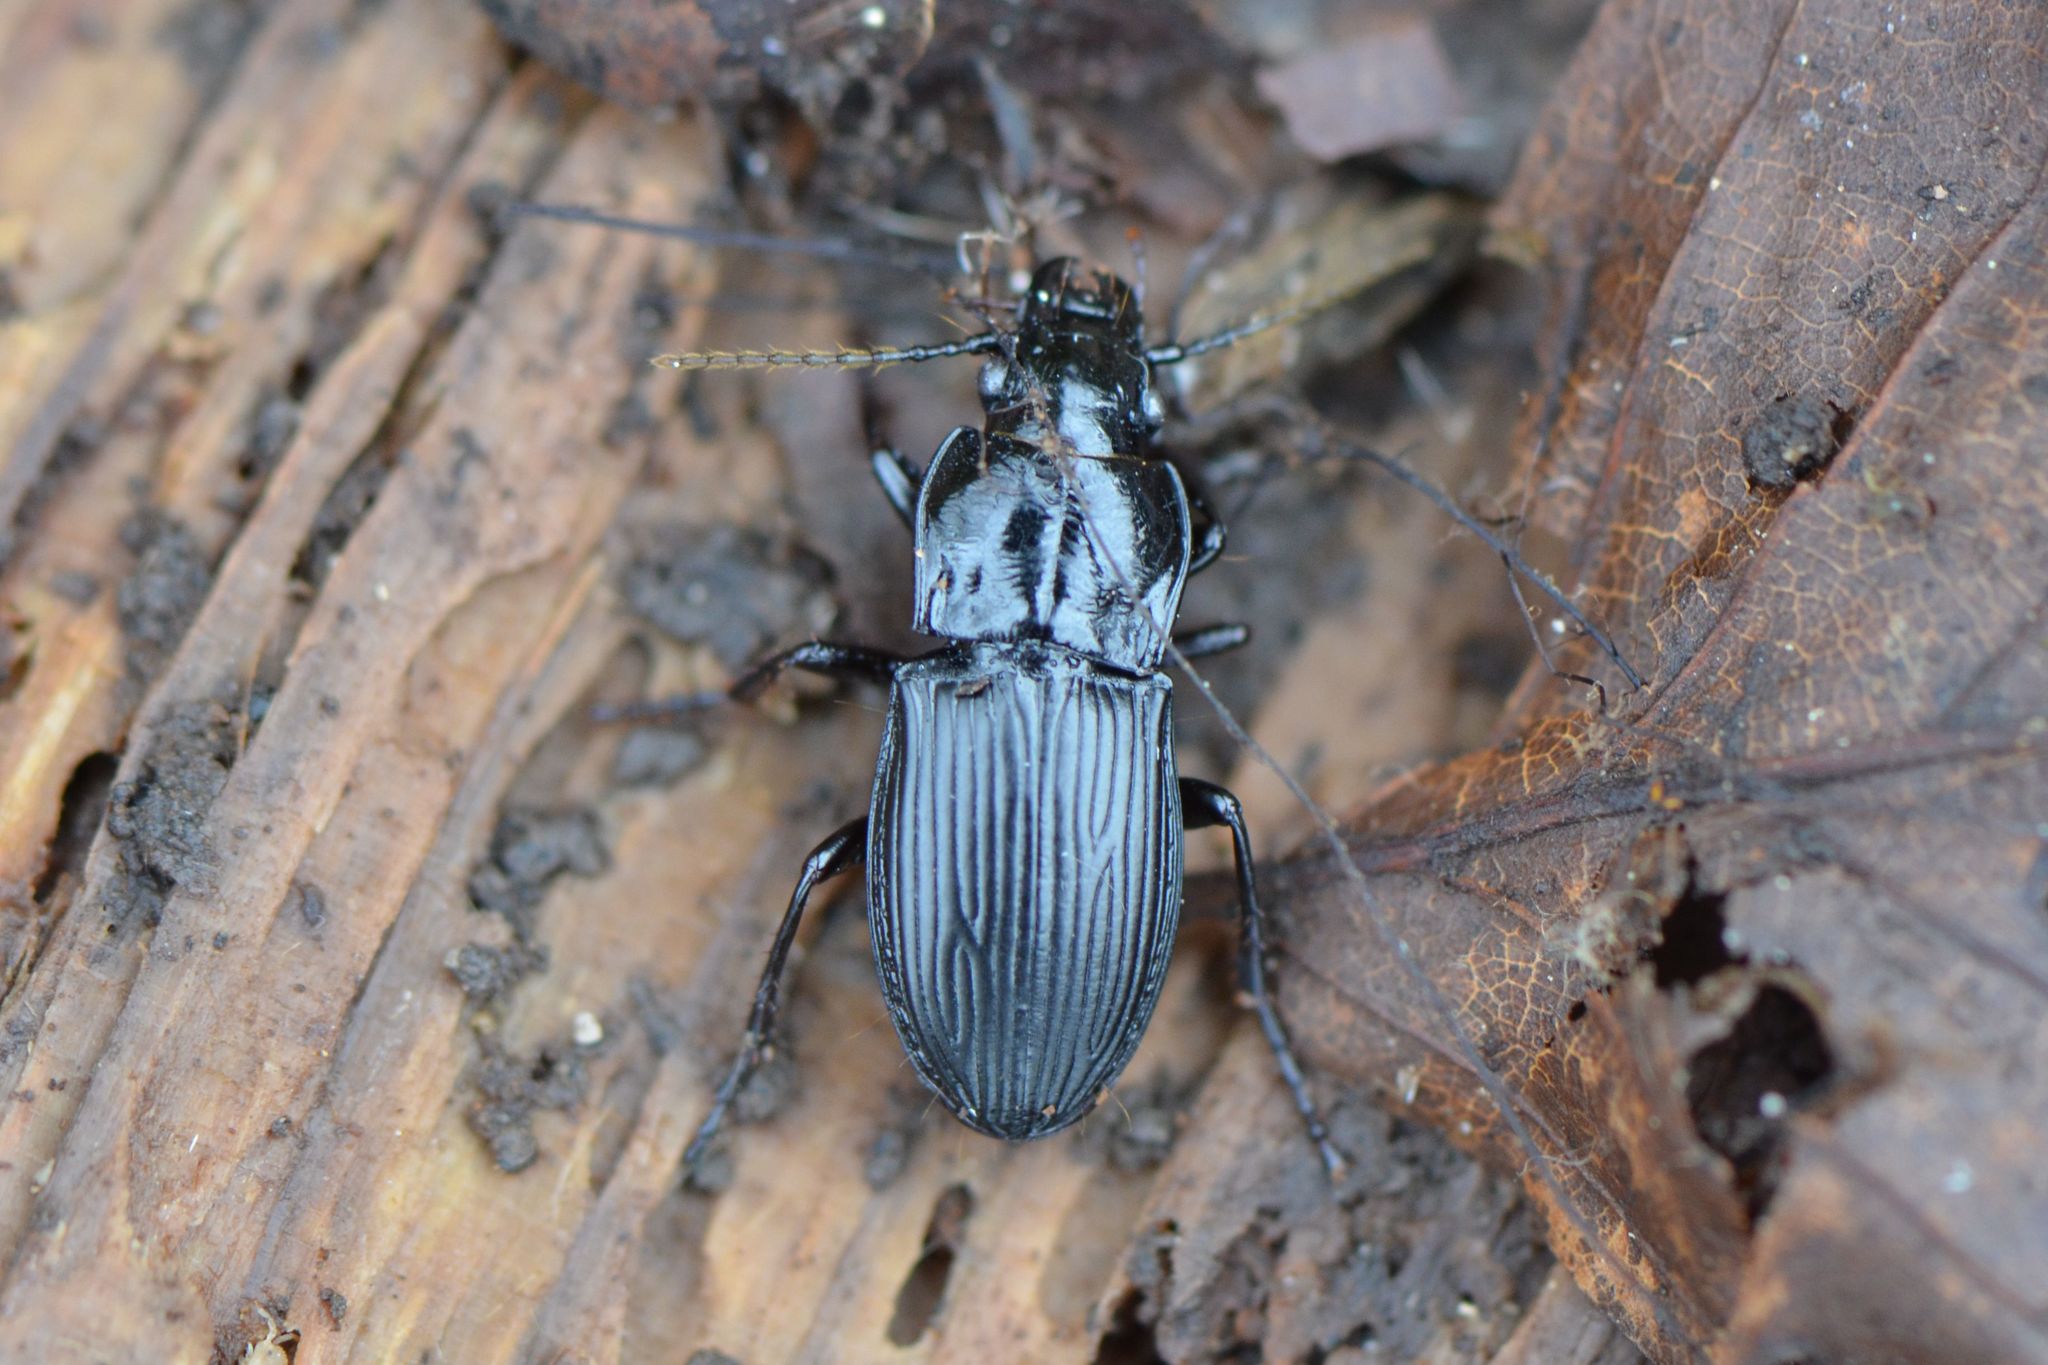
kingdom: Animalia
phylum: Arthropoda
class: Insecta
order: Coleoptera
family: Carabidae
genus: Abax
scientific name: Abax parallelus
